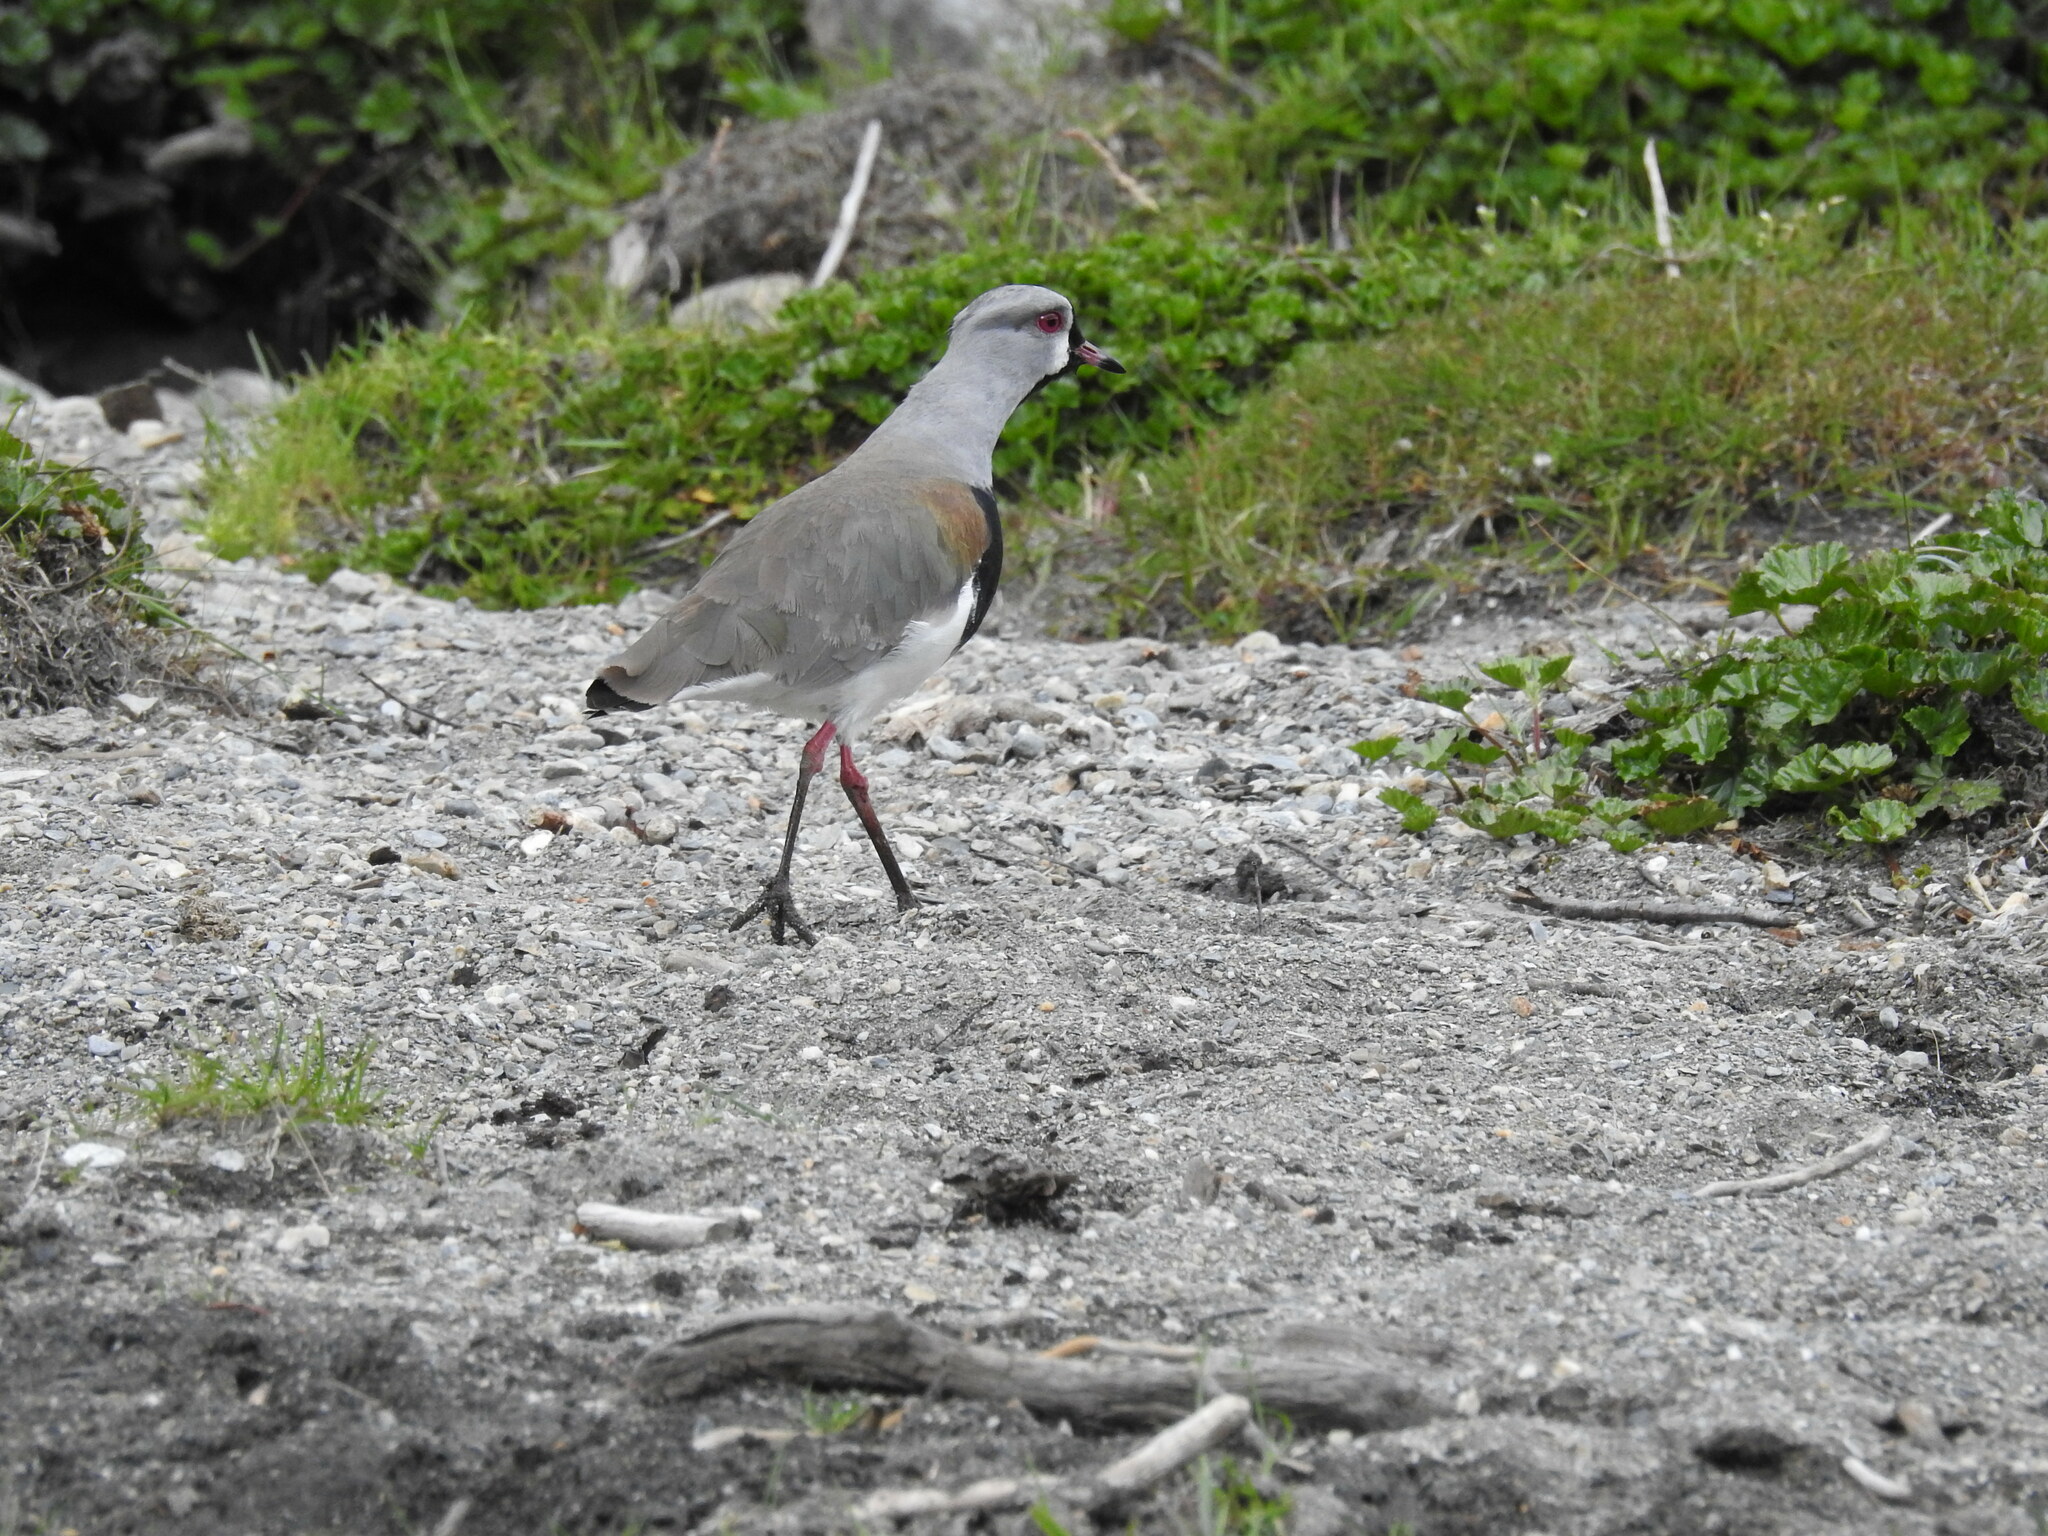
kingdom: Animalia
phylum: Chordata
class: Aves
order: Charadriiformes
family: Charadriidae
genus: Vanellus
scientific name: Vanellus chilensis
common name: Southern lapwing
